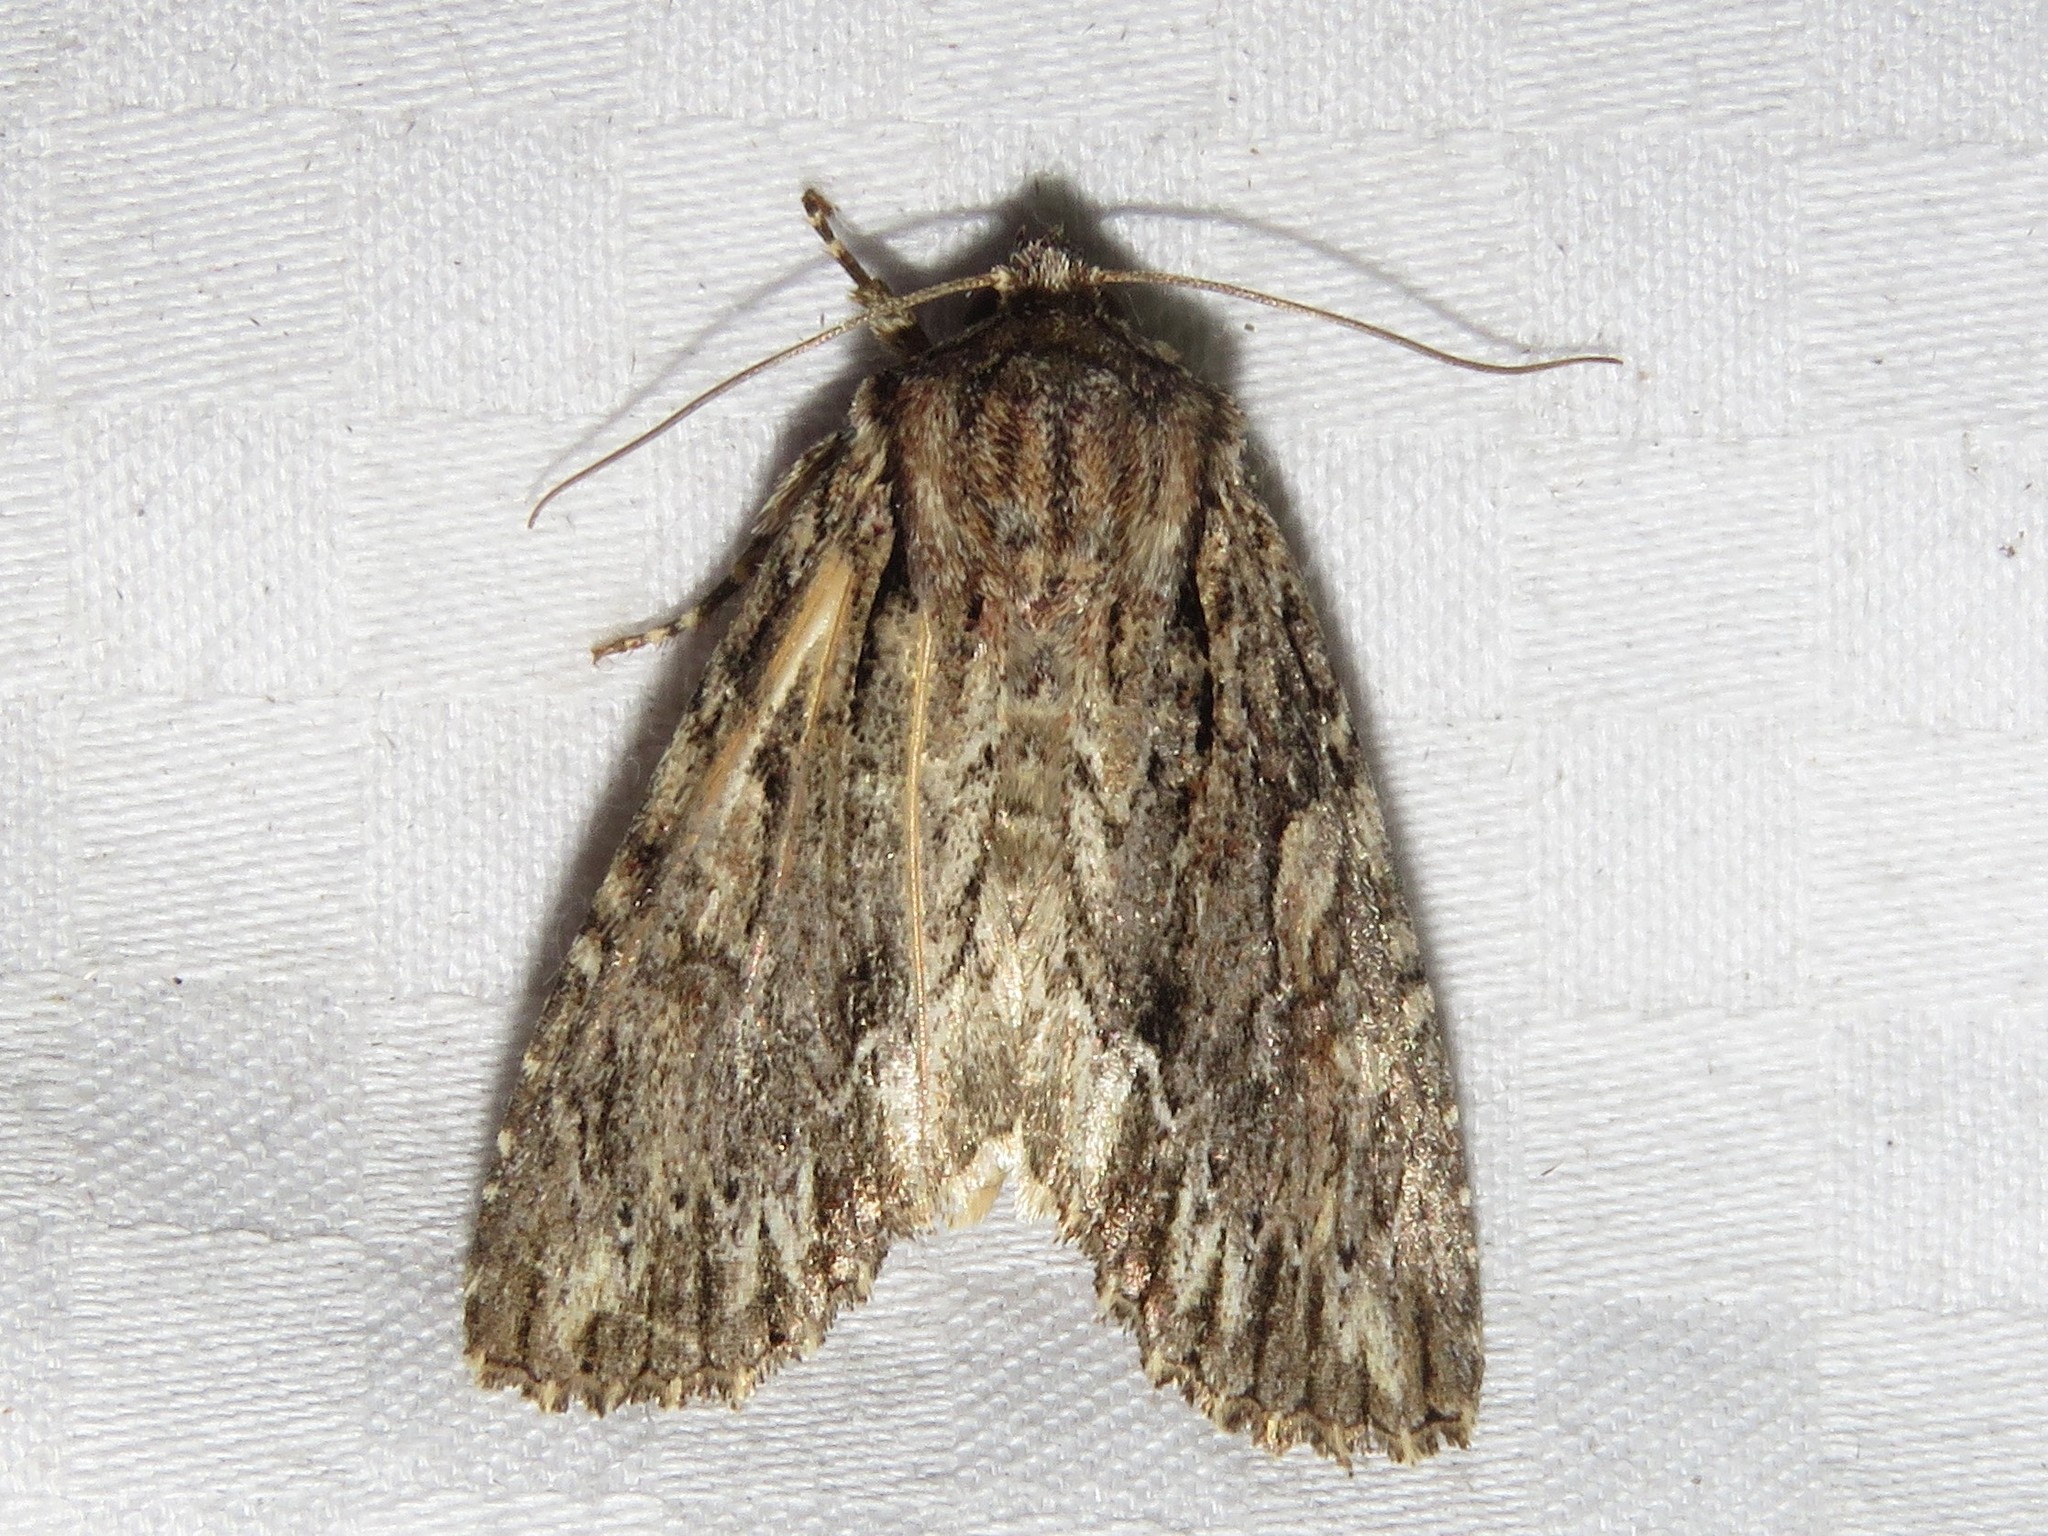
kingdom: Animalia
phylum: Arthropoda
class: Insecta
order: Lepidoptera
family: Noctuidae
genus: Achatia
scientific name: Achatia confusa
